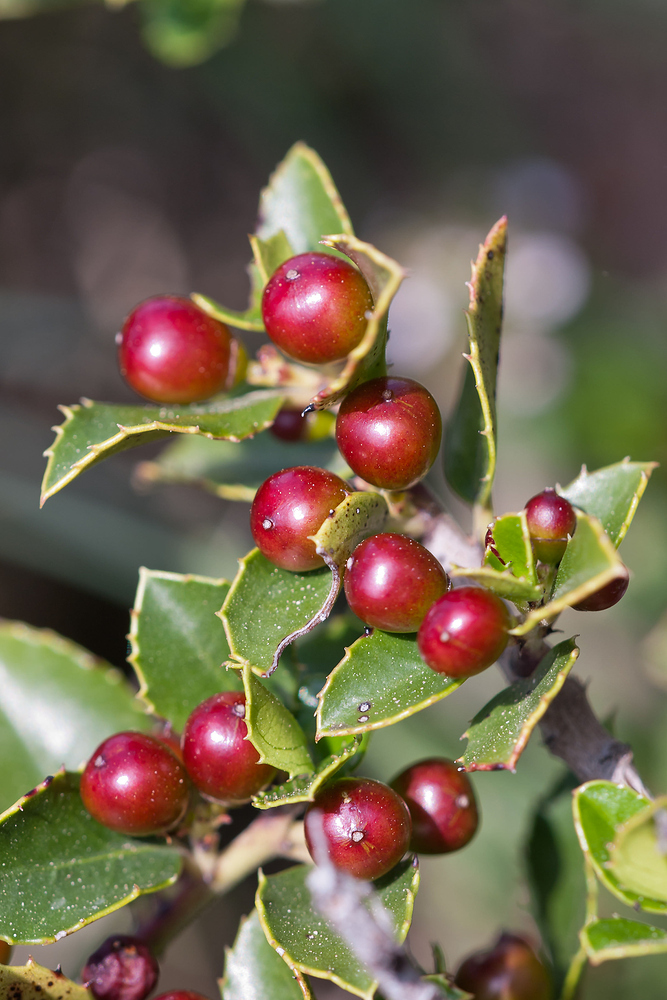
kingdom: Plantae
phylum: Tracheophyta
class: Magnoliopsida
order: Rosales
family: Rhamnaceae
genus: Rhamnus
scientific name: Rhamnus alaternus
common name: Mediterranean buckthorn
